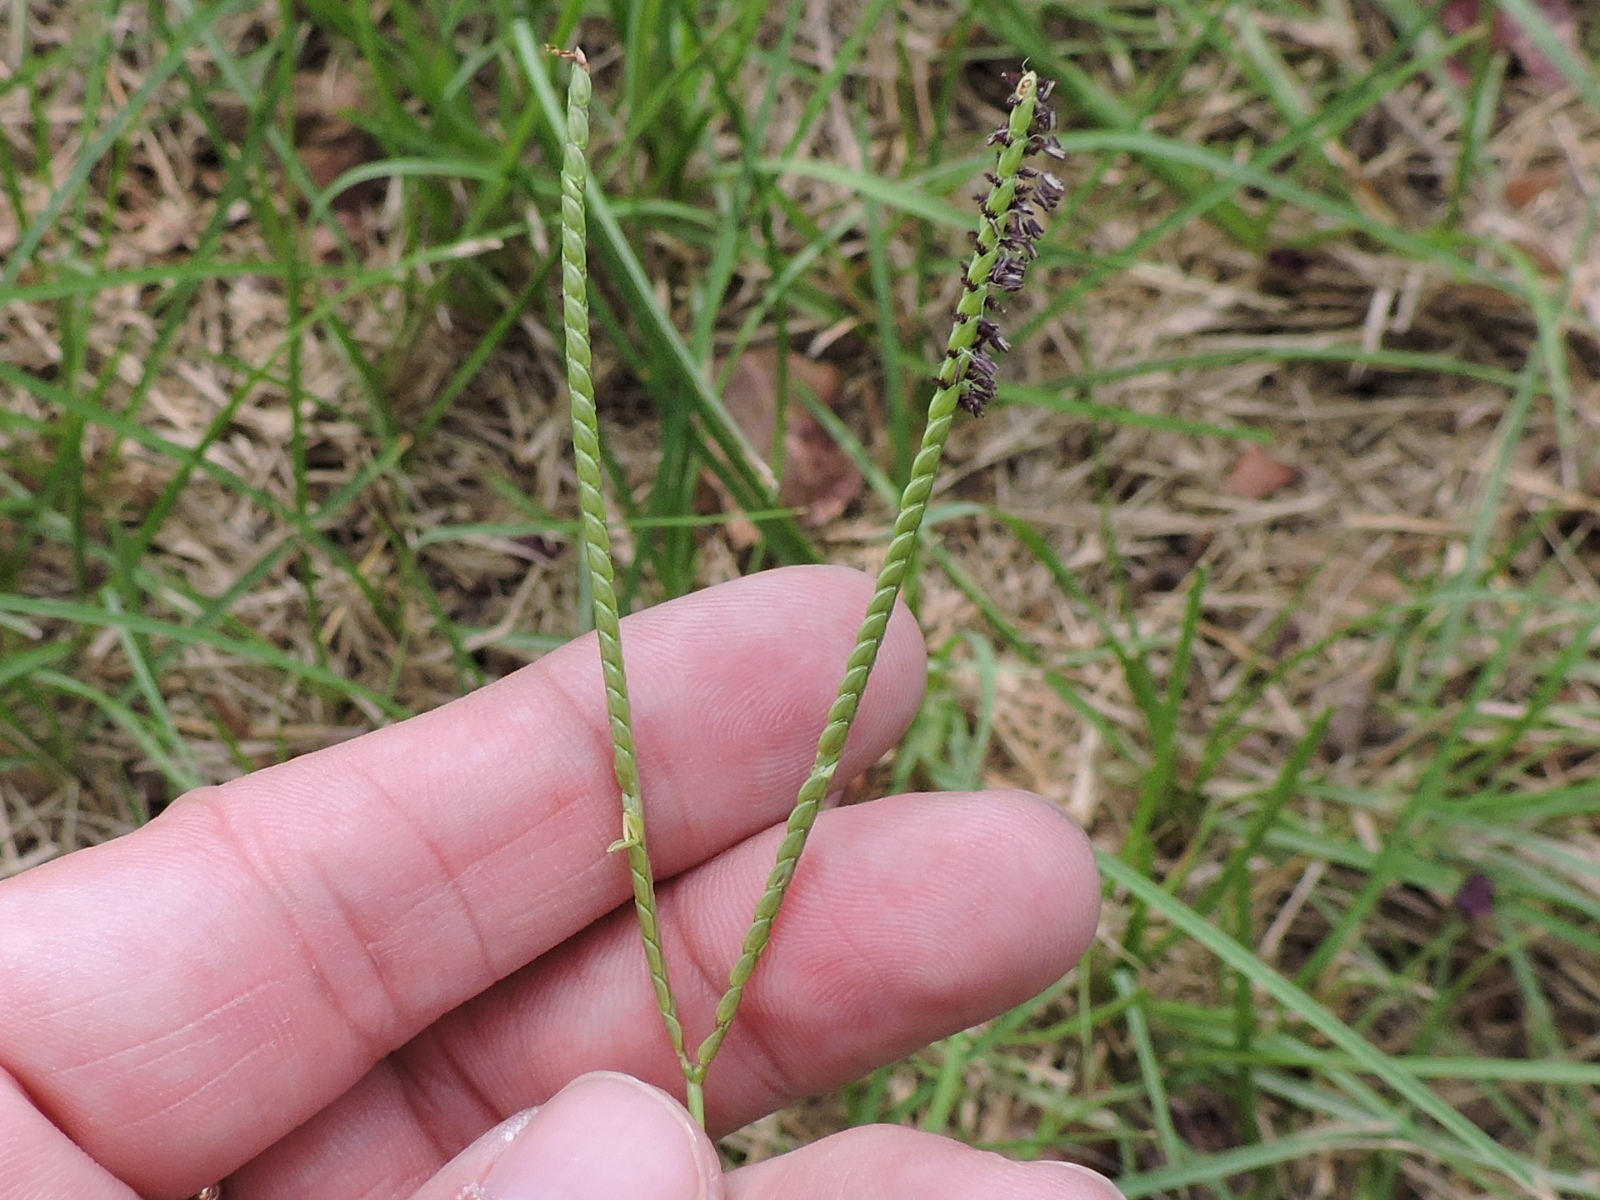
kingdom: Plantae
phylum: Tracheophyta
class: Liliopsida
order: Poales
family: Poaceae
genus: Paspalum
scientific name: Paspalum notatum
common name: Bahiagrass
